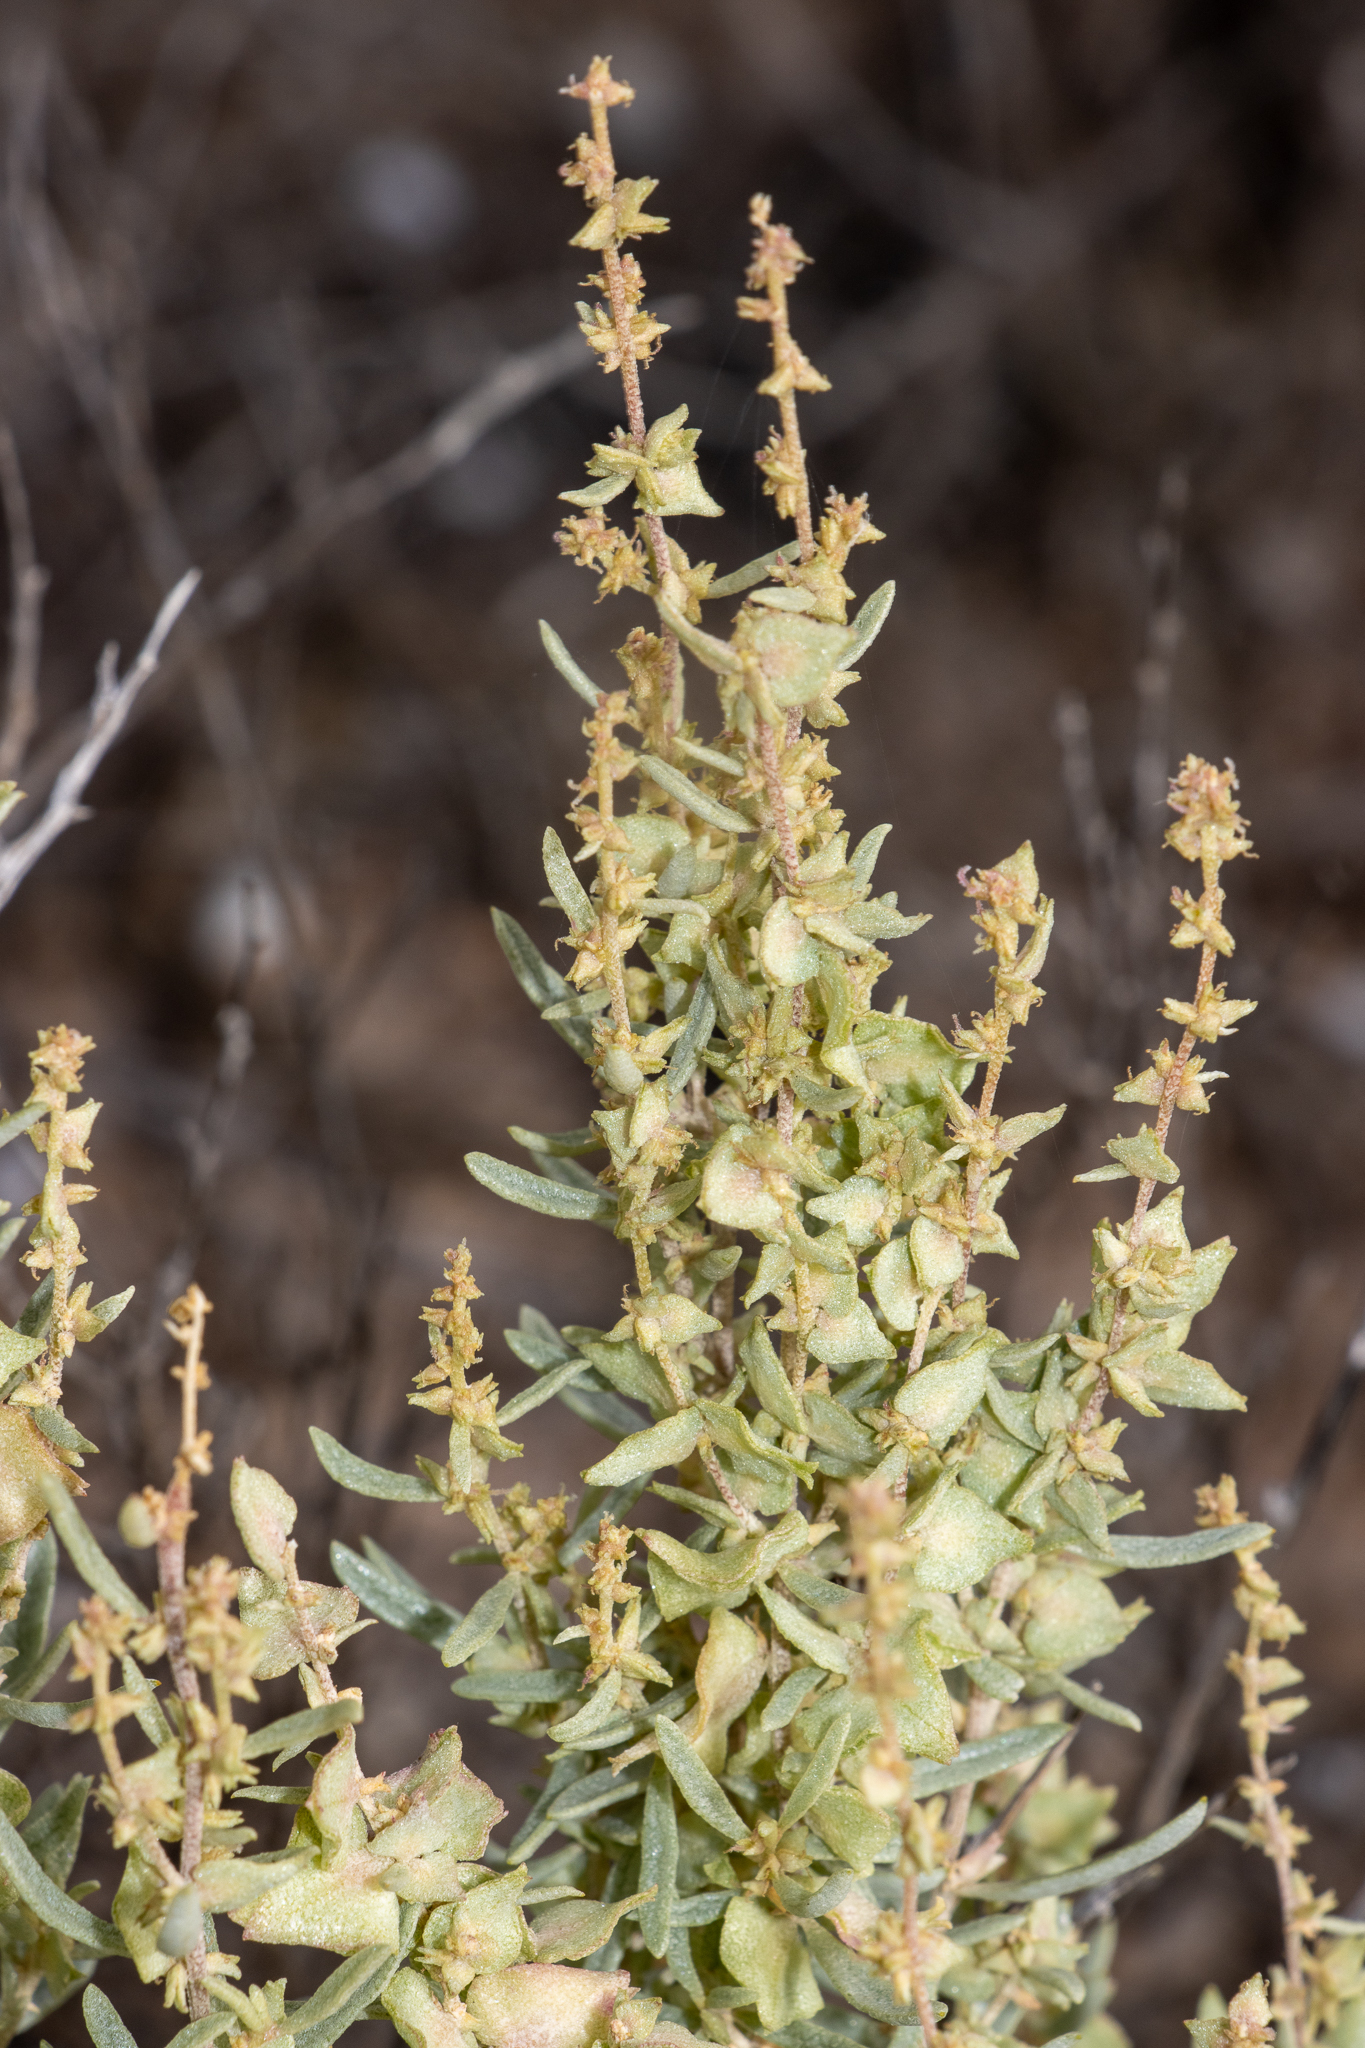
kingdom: Plantae
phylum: Tracheophyta
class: Magnoliopsida
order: Caryophyllales
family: Amaranthaceae
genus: Atriplex
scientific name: Atriplex paludosa
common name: Marsh saltbush
